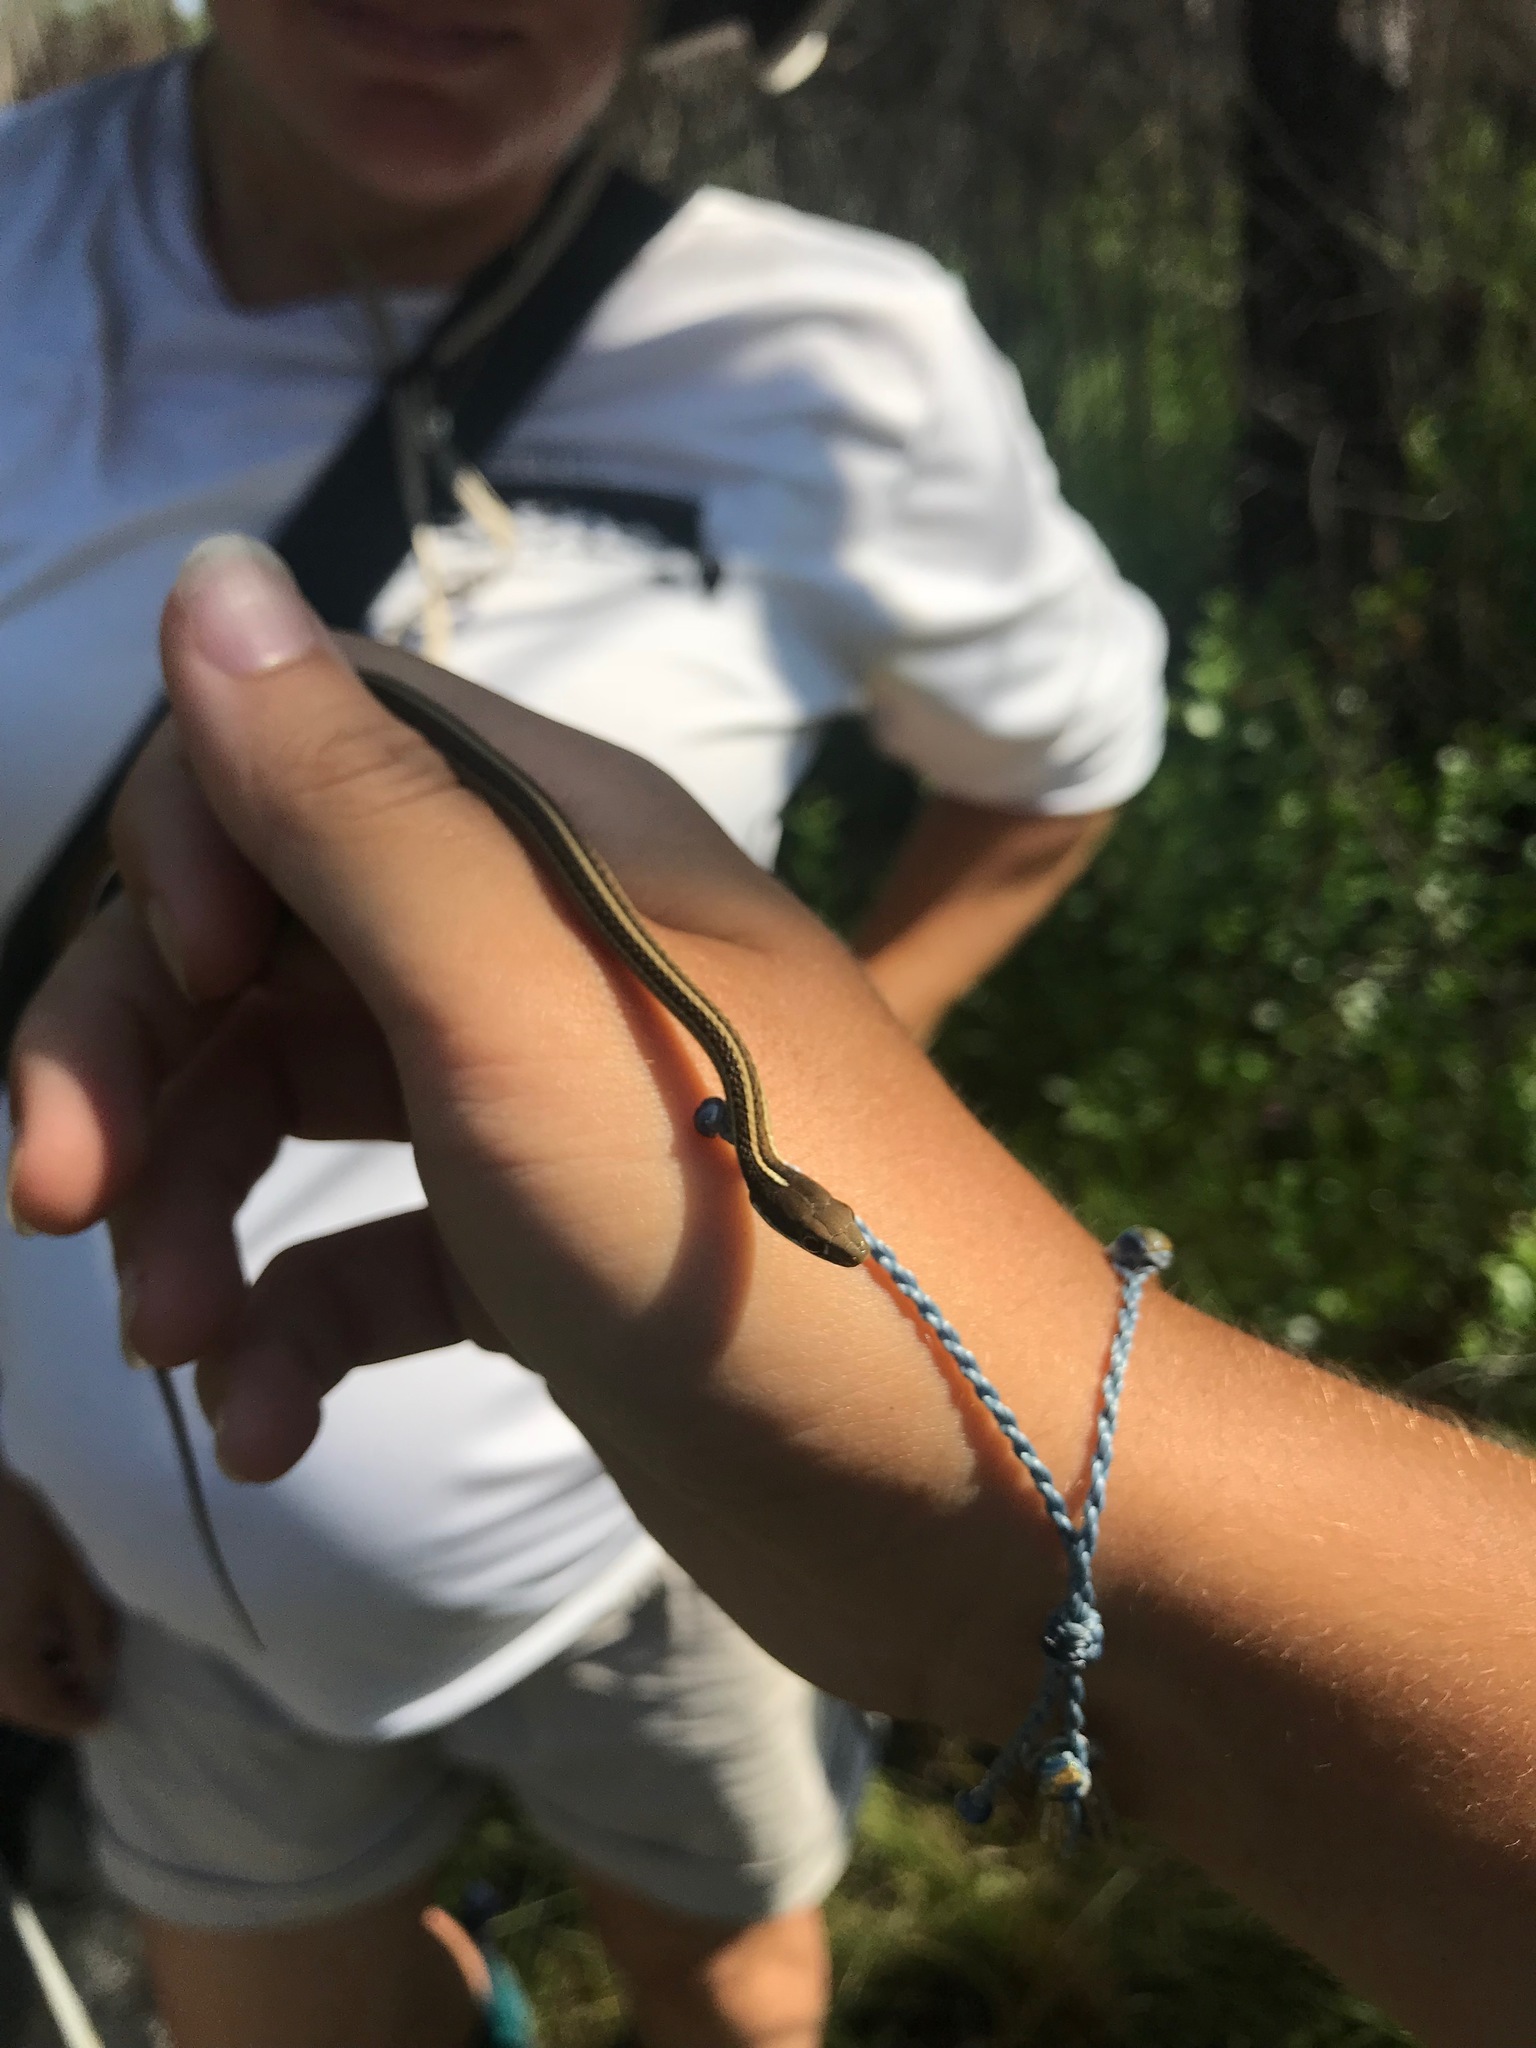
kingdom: Animalia
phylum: Chordata
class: Squamata
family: Colubridae
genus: Thamnophis
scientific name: Thamnophis saurita
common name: Eastern ribbonsnake
